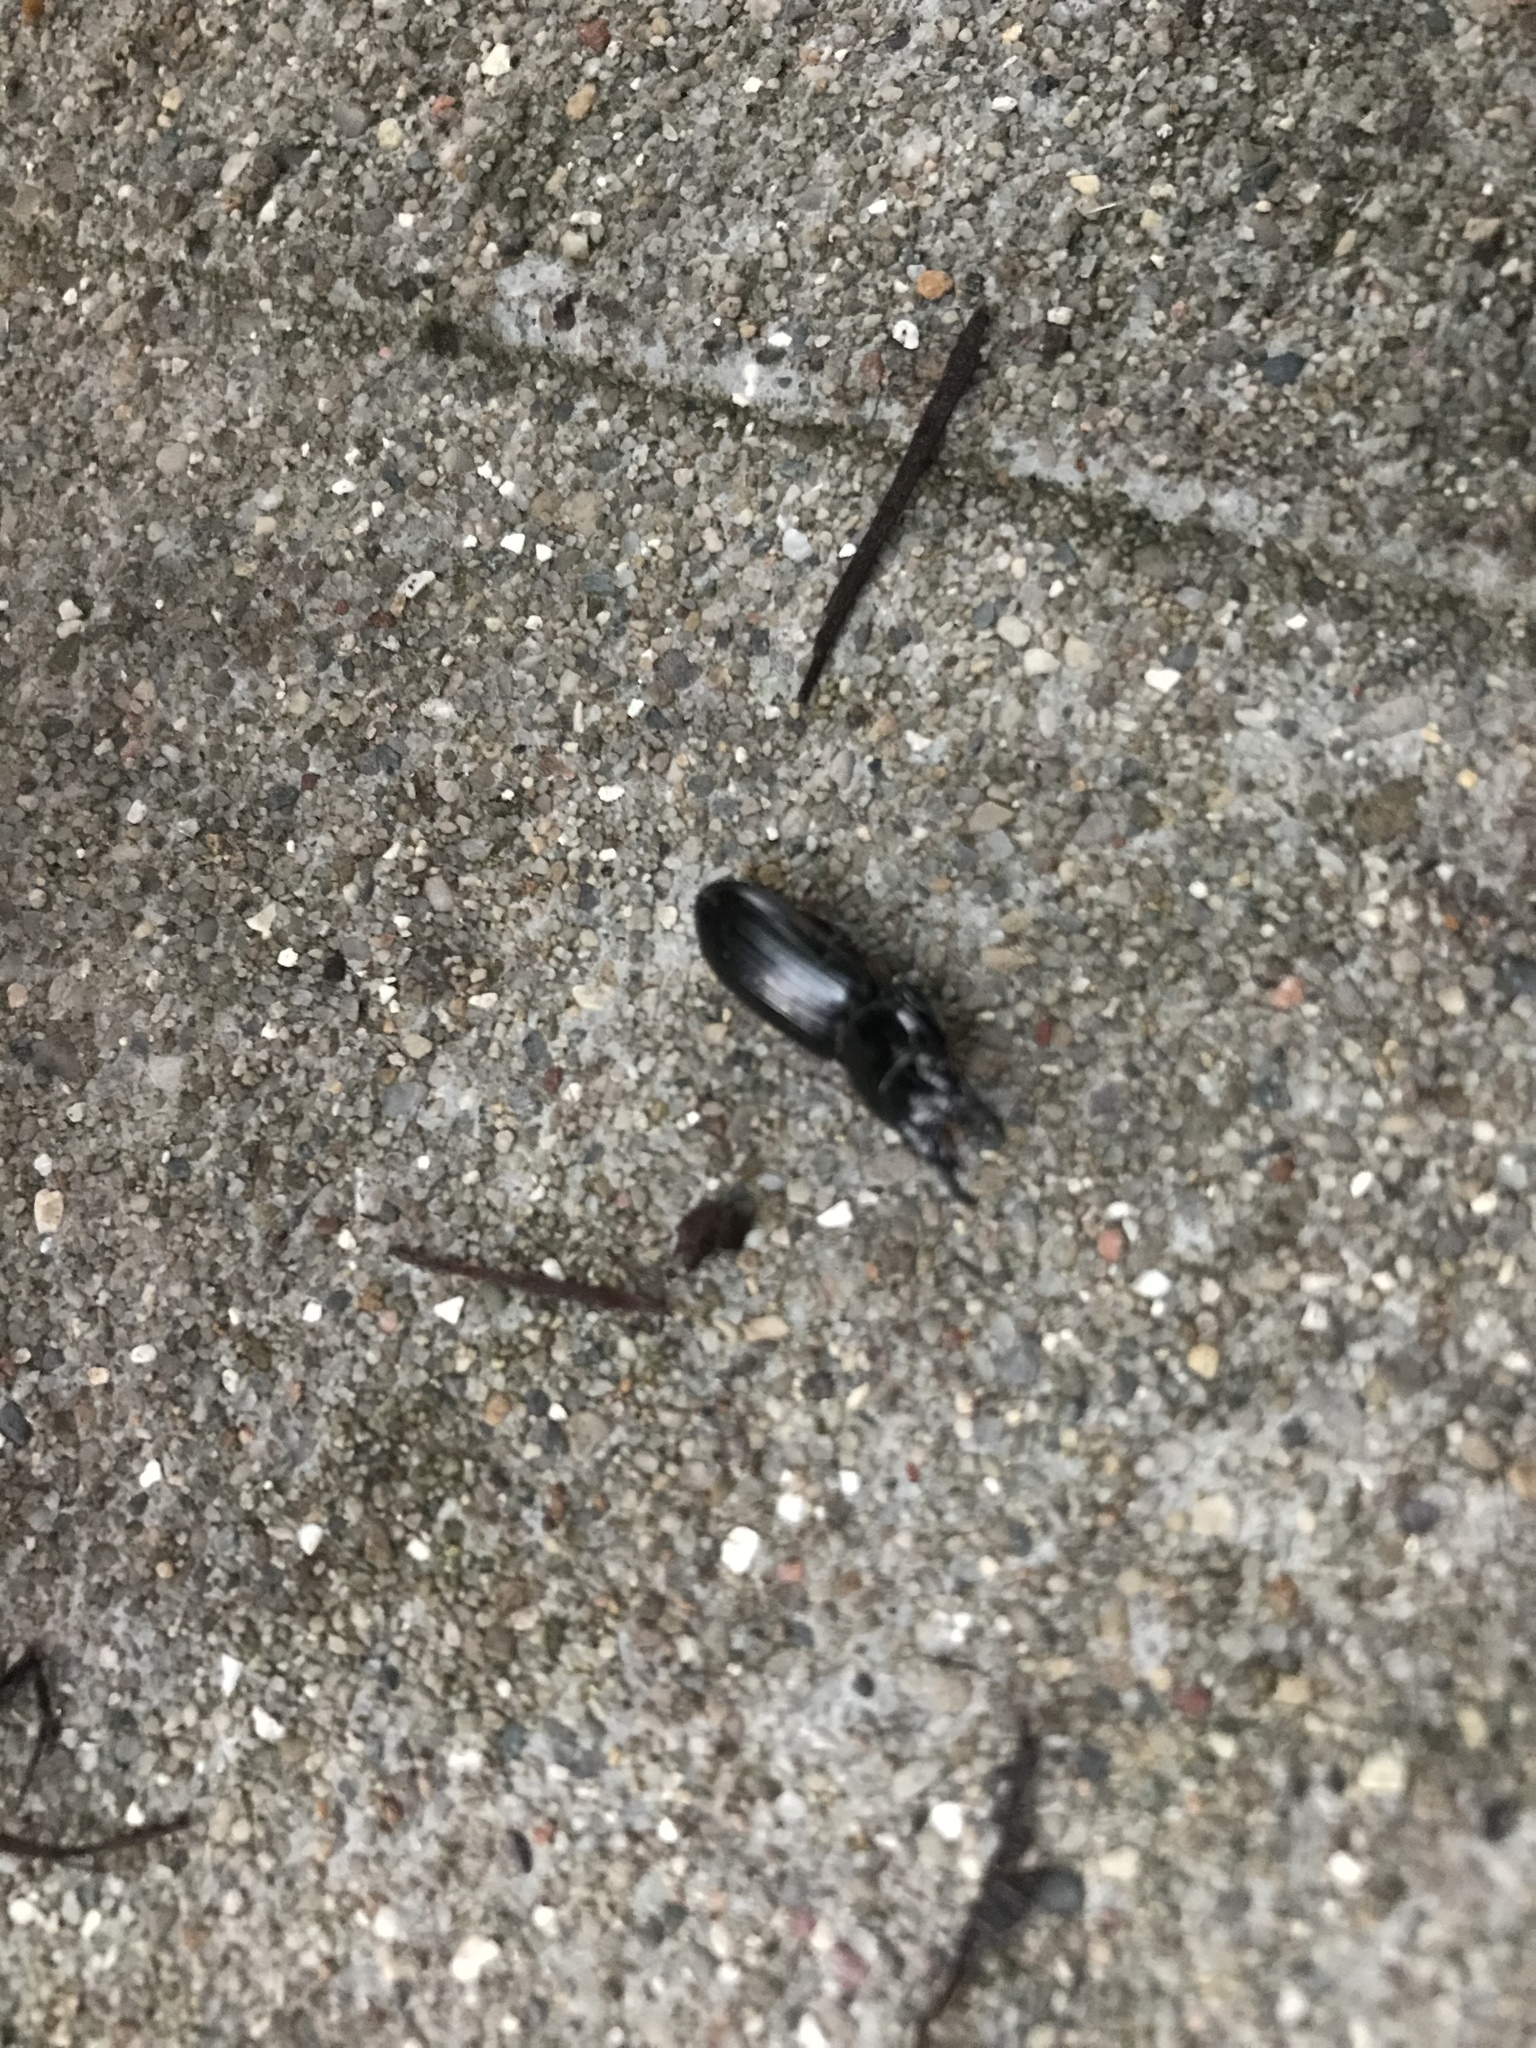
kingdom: Animalia
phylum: Arthropoda
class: Insecta
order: Coleoptera
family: Carabidae
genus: Scarites
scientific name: Scarites subterraneus
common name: Big-headed ground beetle
